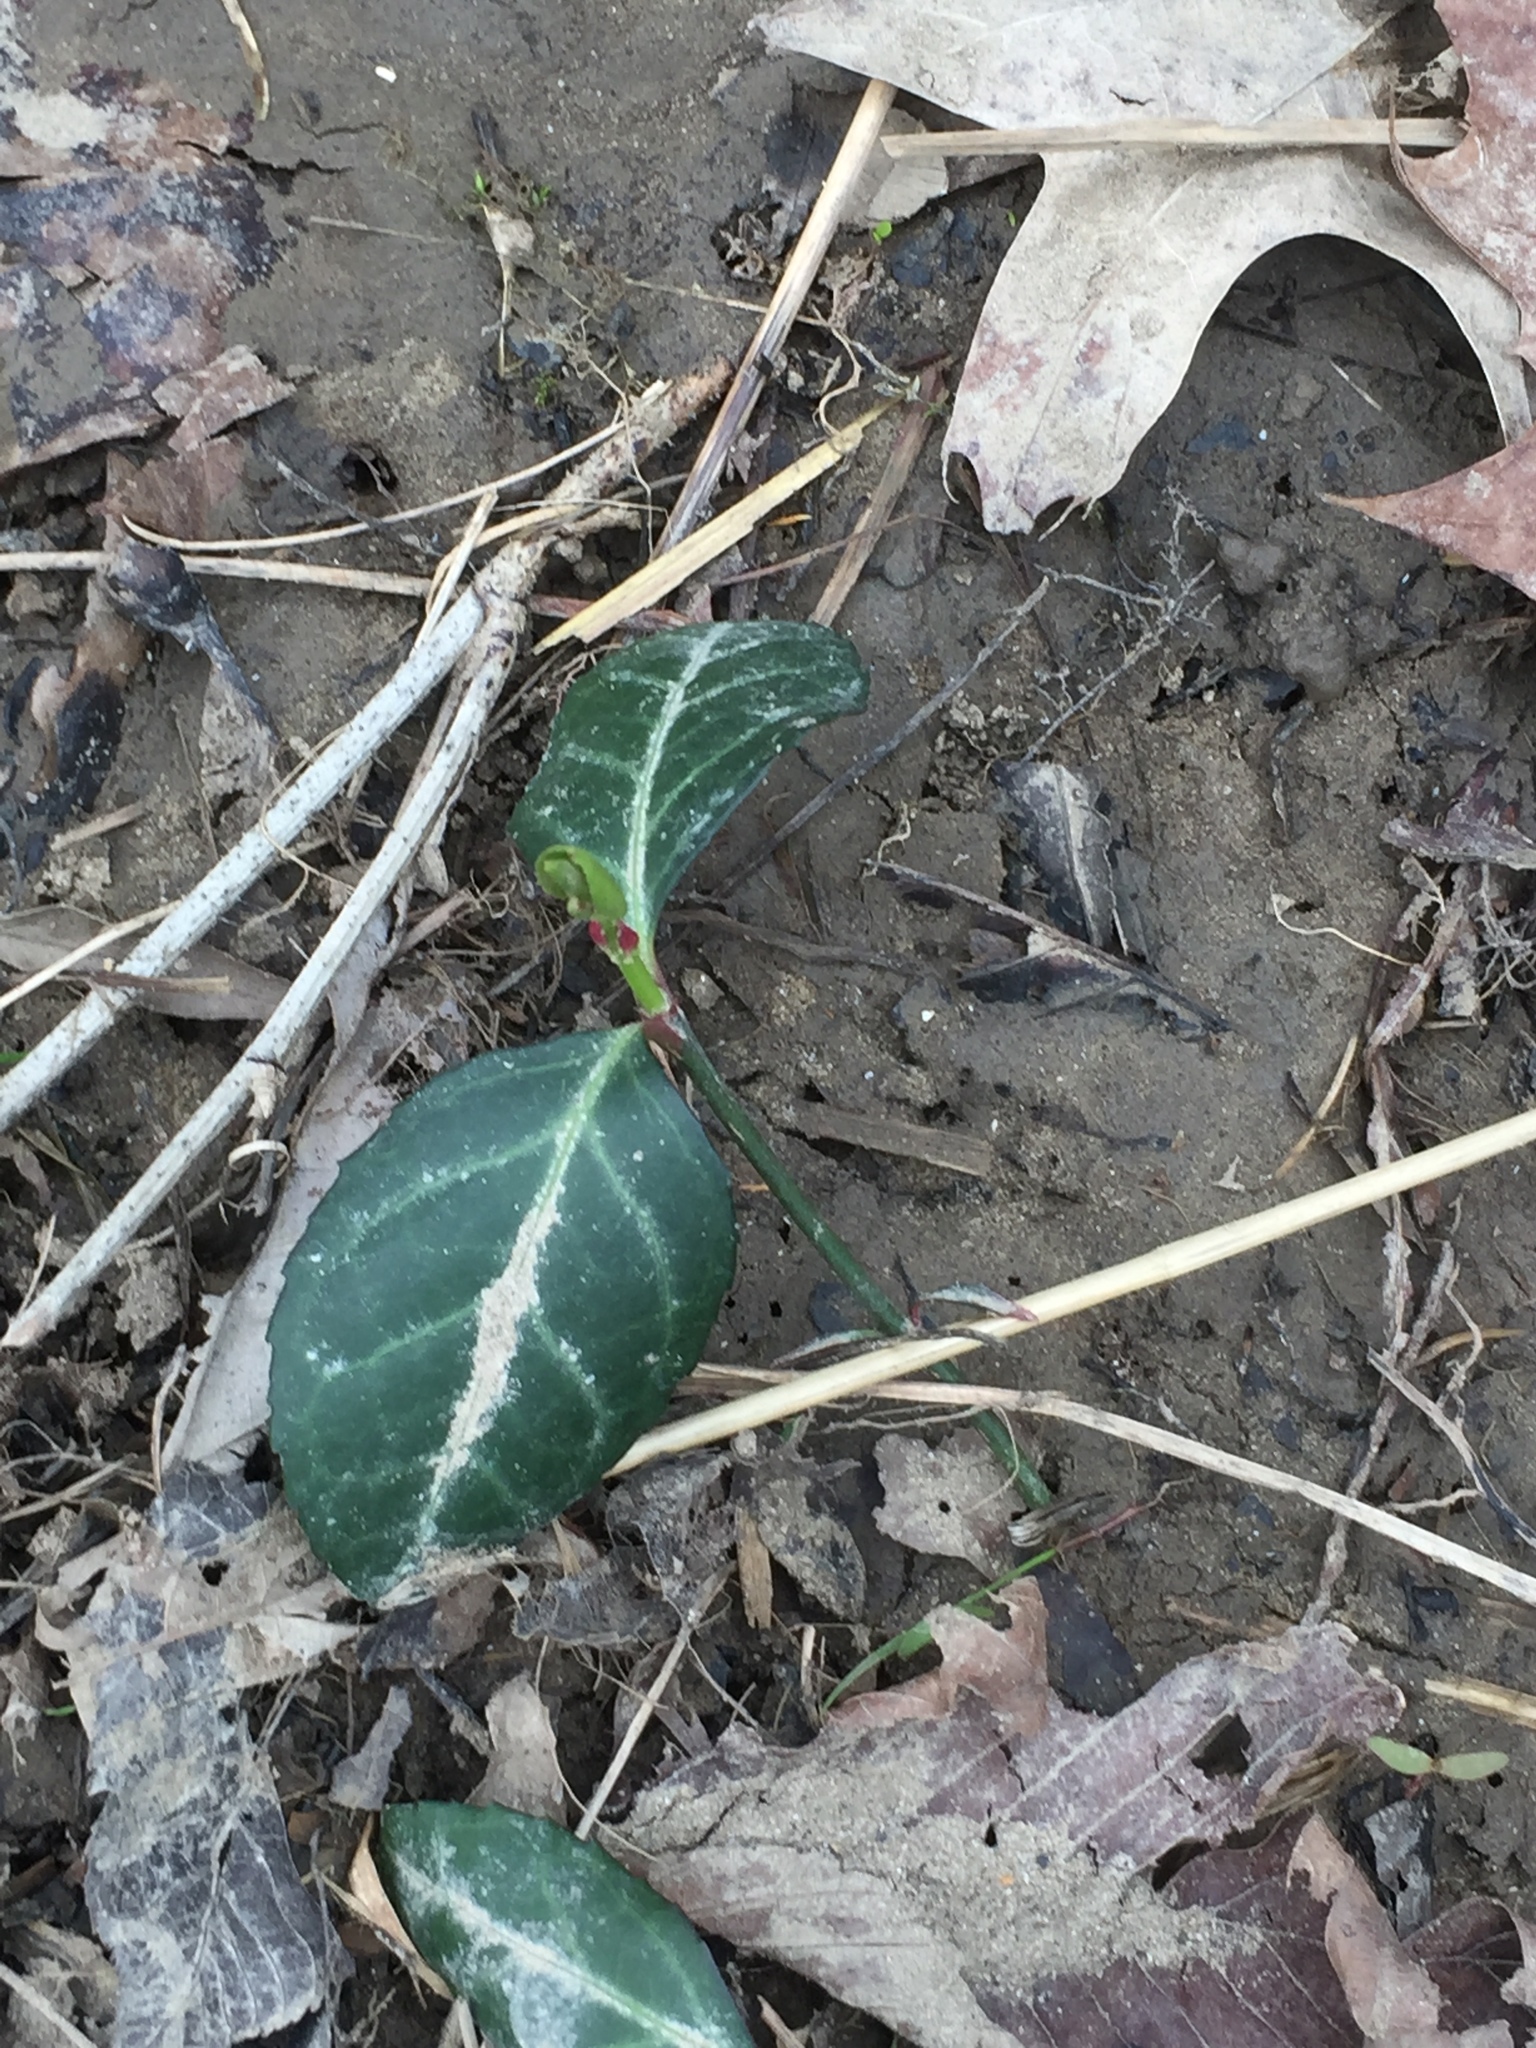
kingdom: Plantae
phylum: Tracheophyta
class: Magnoliopsida
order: Celastrales
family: Celastraceae
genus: Euonymus
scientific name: Euonymus fortunei
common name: Climbing euonymus
